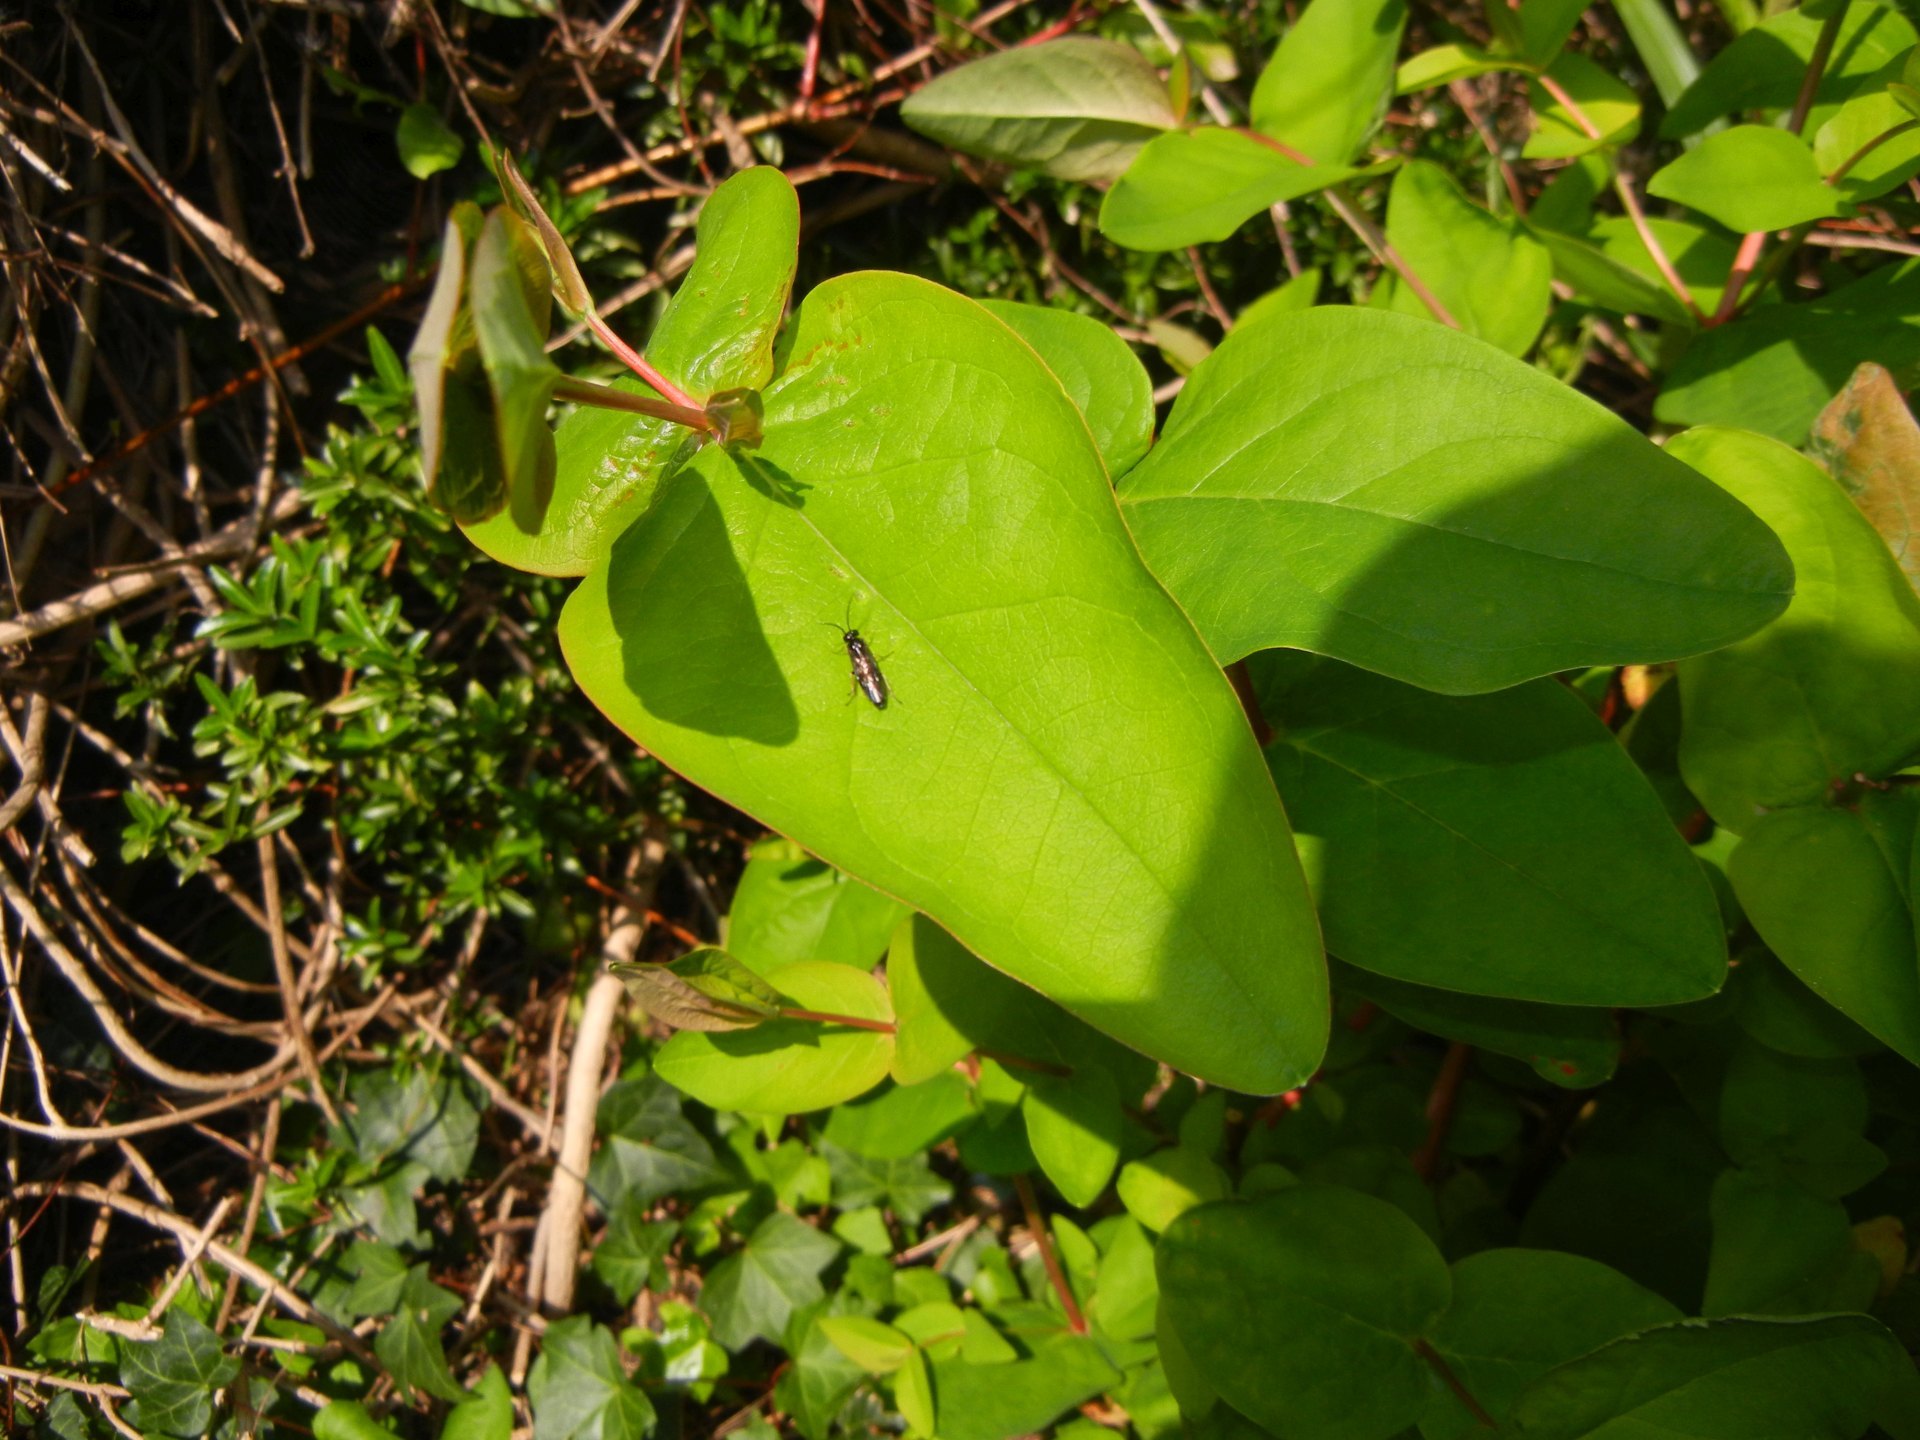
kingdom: Plantae
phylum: Tracheophyta
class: Magnoliopsida
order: Malpighiales
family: Hypericaceae
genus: Hypericum
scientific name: Hypericum androsaemum
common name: Sweet-amber
